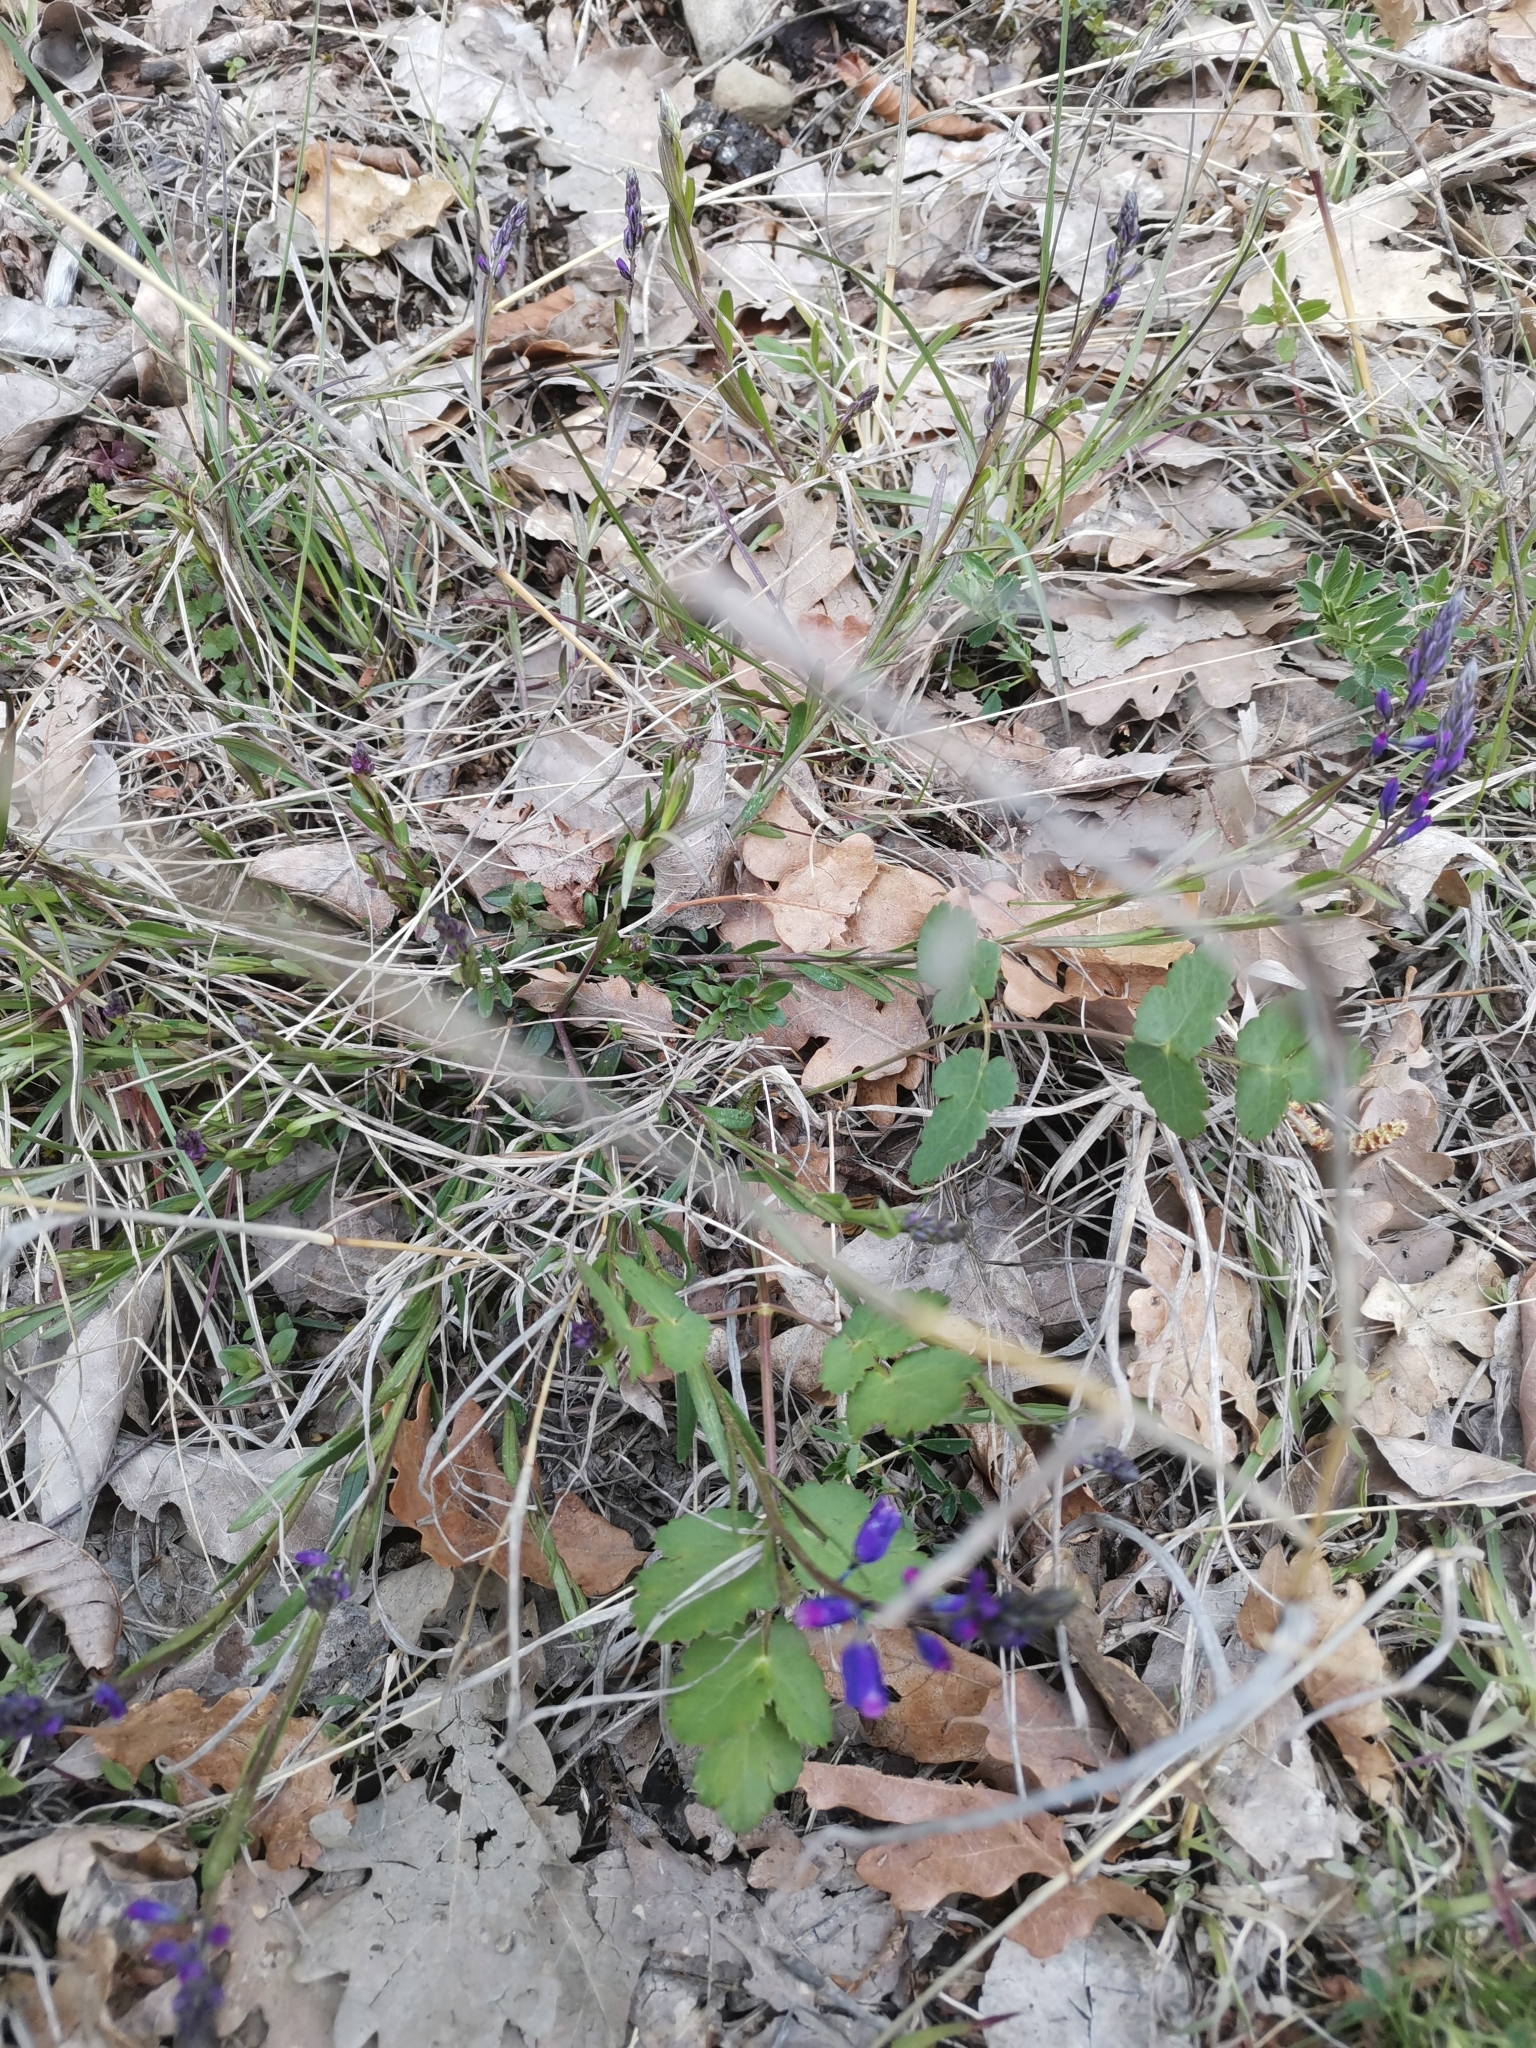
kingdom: Plantae
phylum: Tracheophyta
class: Magnoliopsida
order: Fabales
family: Polygalaceae
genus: Polygala
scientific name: Polygala nicaeensis
